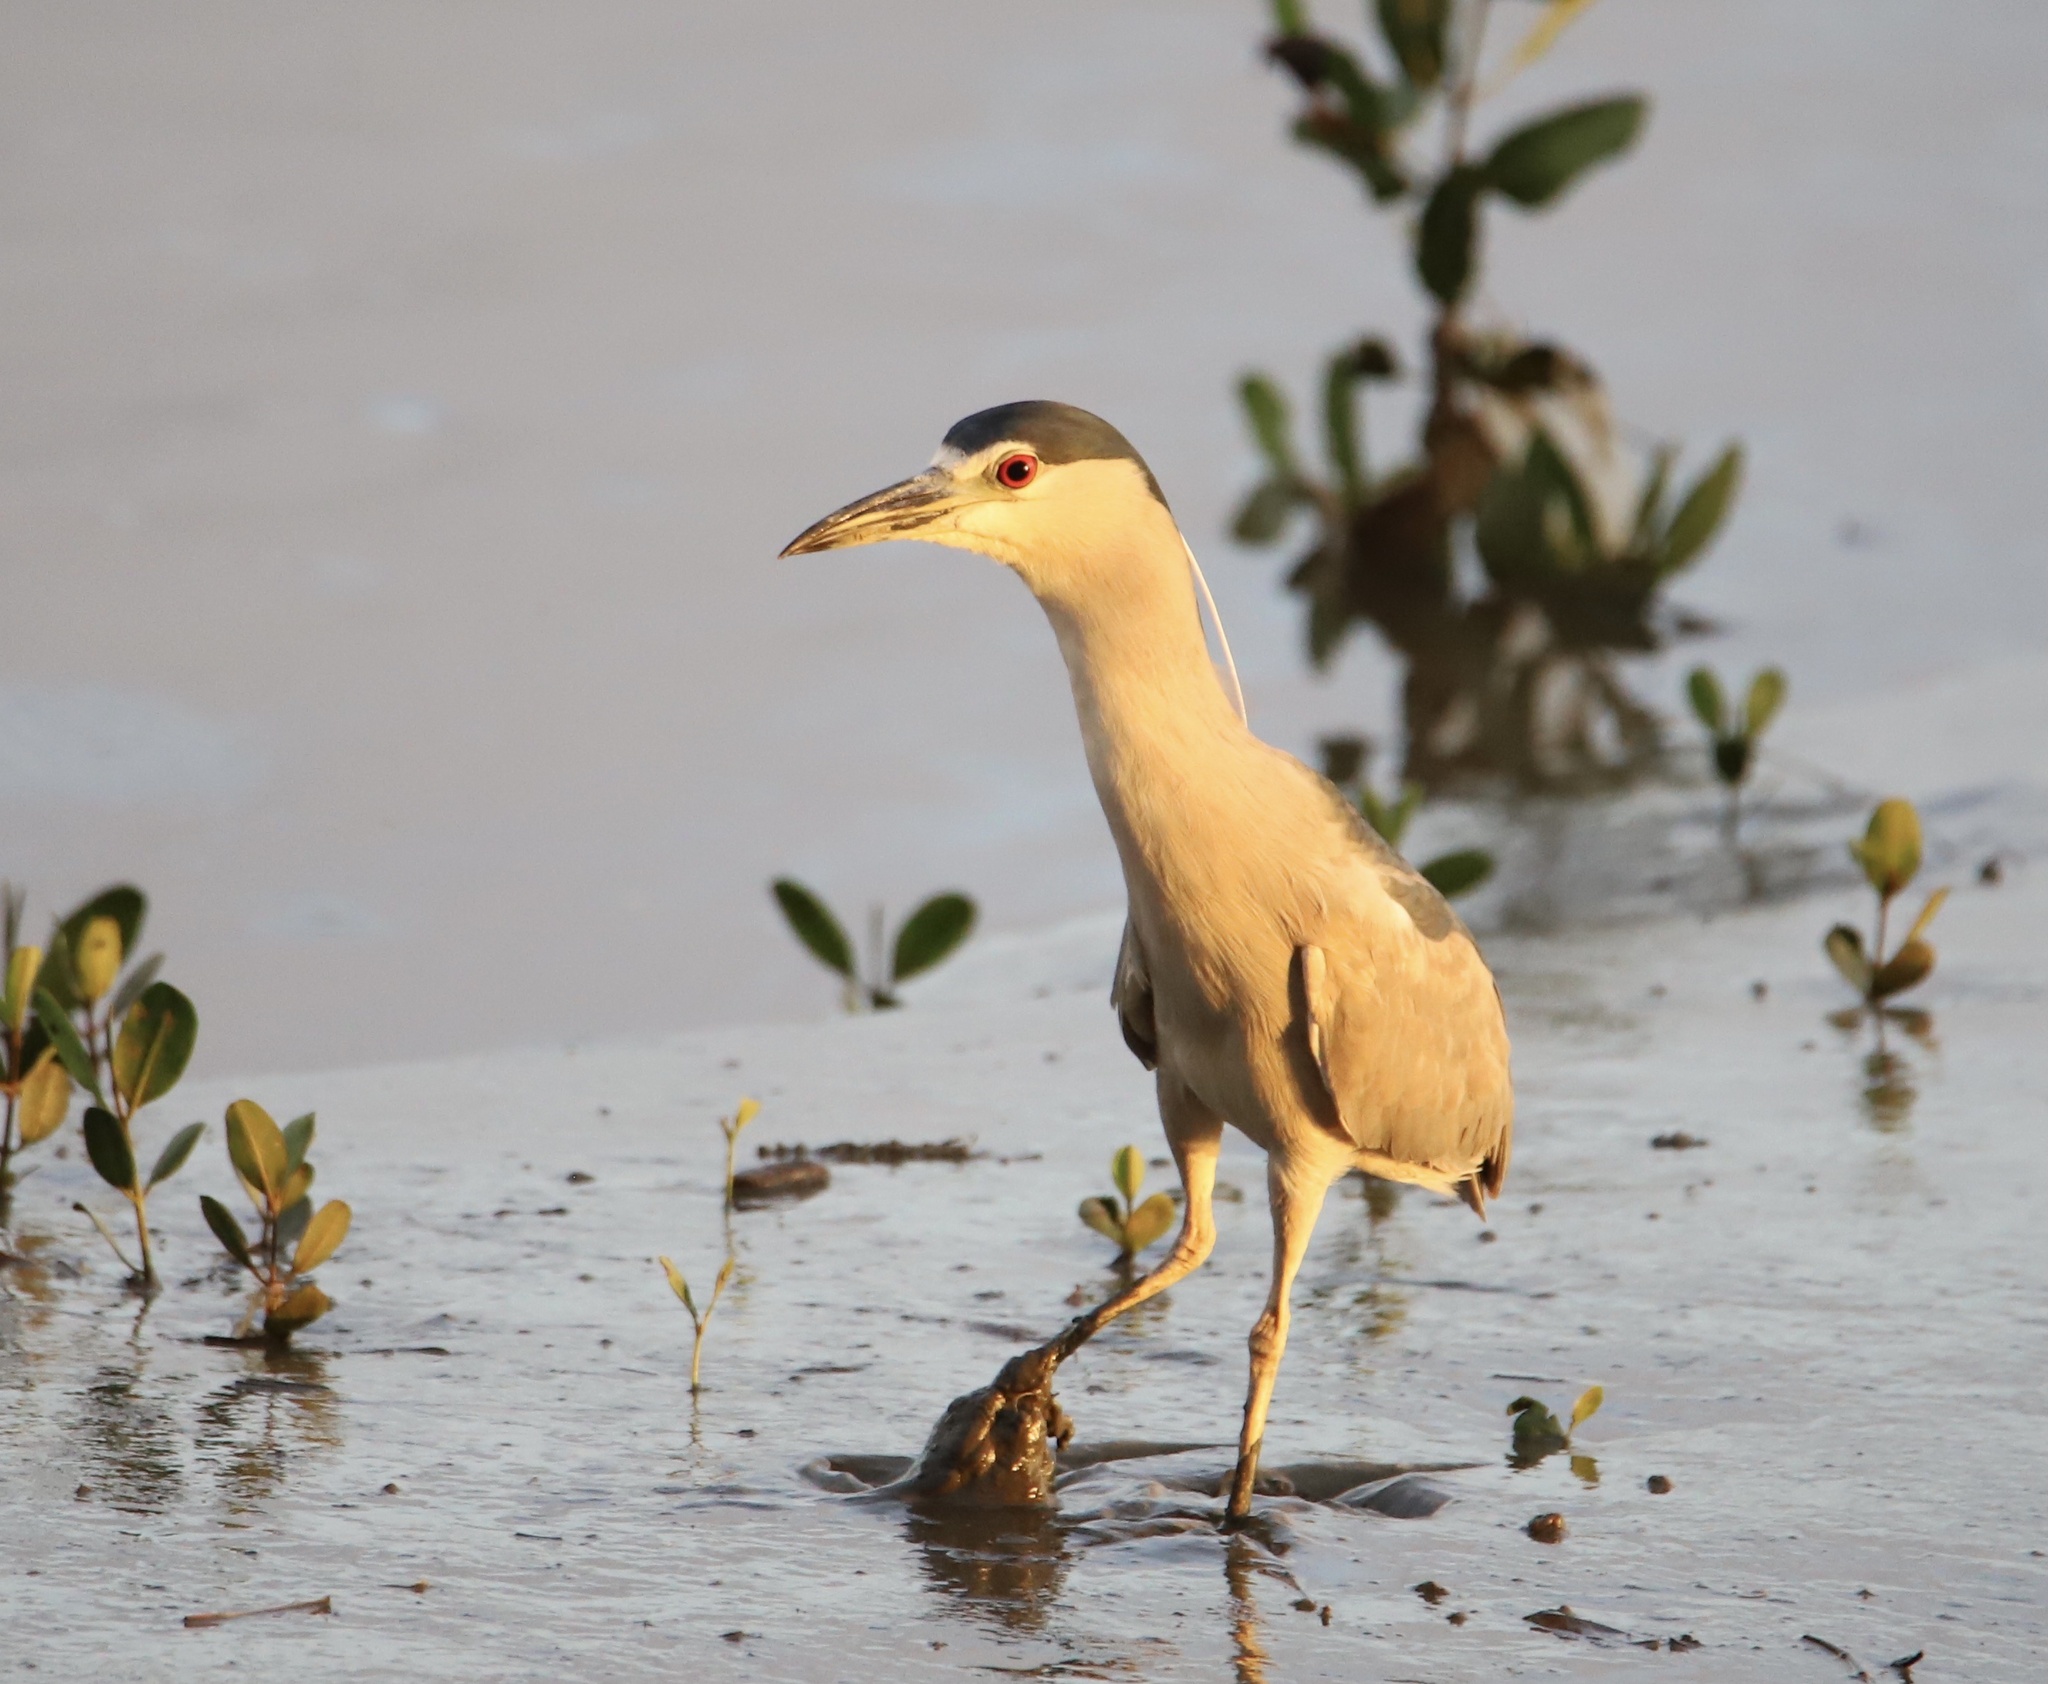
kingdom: Animalia
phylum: Chordata
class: Aves
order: Pelecaniformes
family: Ardeidae
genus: Nycticorax
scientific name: Nycticorax nycticorax
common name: Black-crowned night heron
